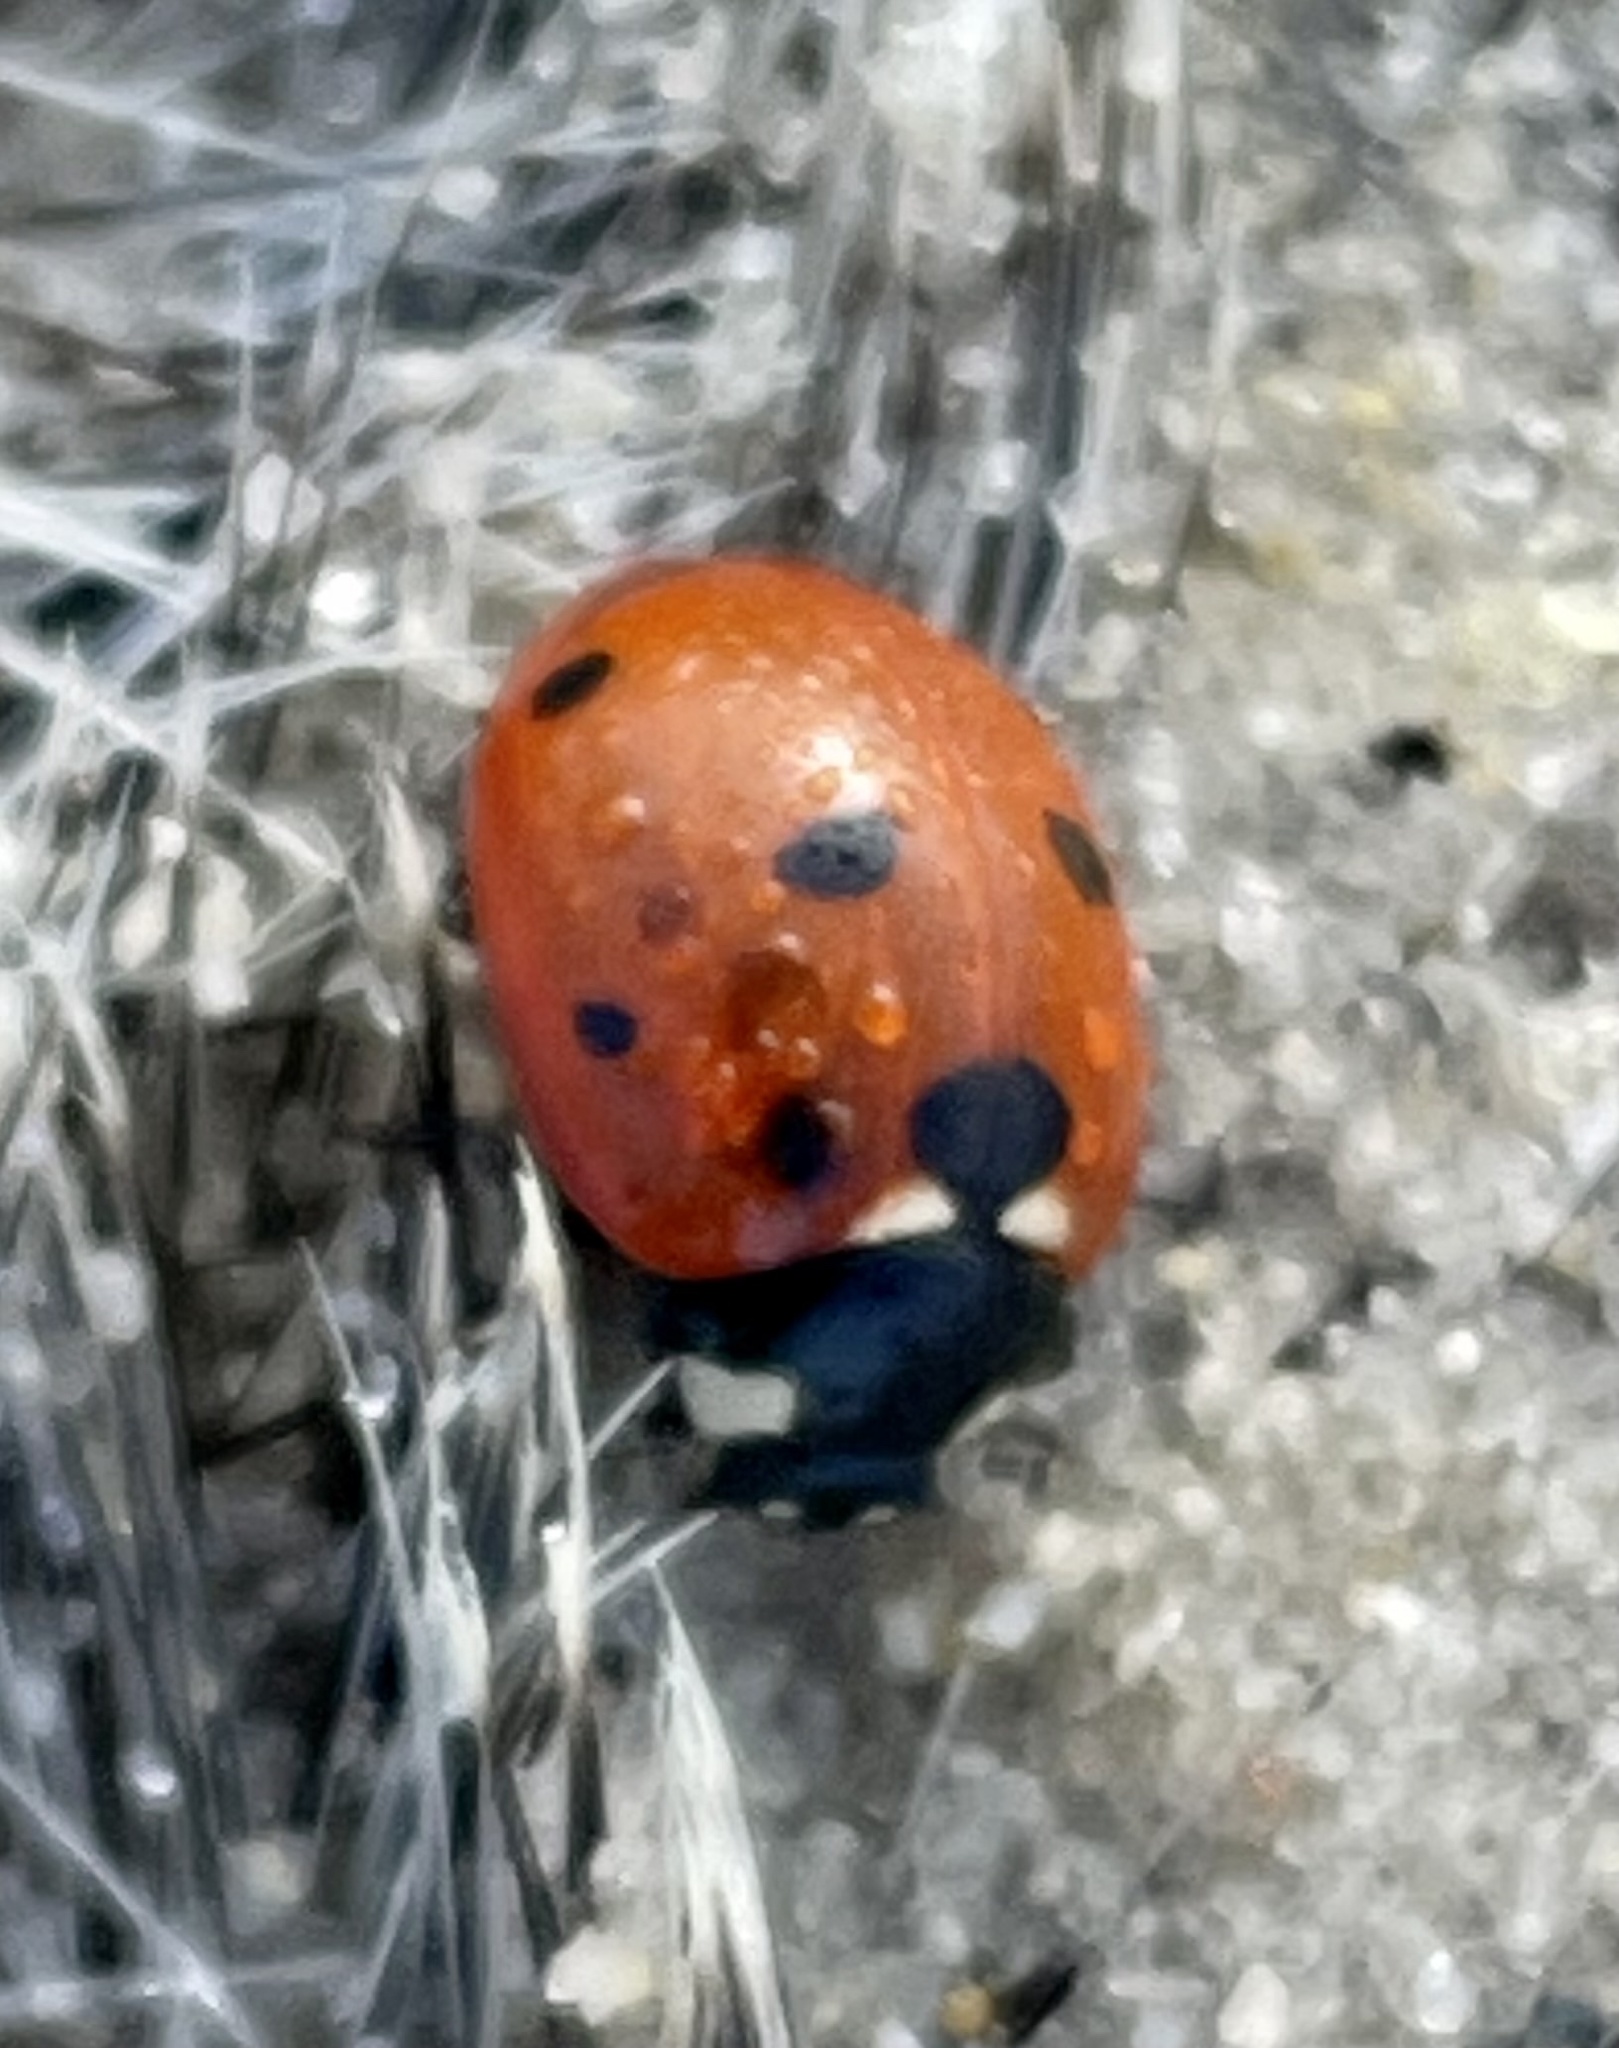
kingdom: Animalia
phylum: Arthropoda
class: Insecta
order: Coleoptera
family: Coccinellidae
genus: Coccinella
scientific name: Coccinella septempunctata
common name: Sevenspotted lady beetle
